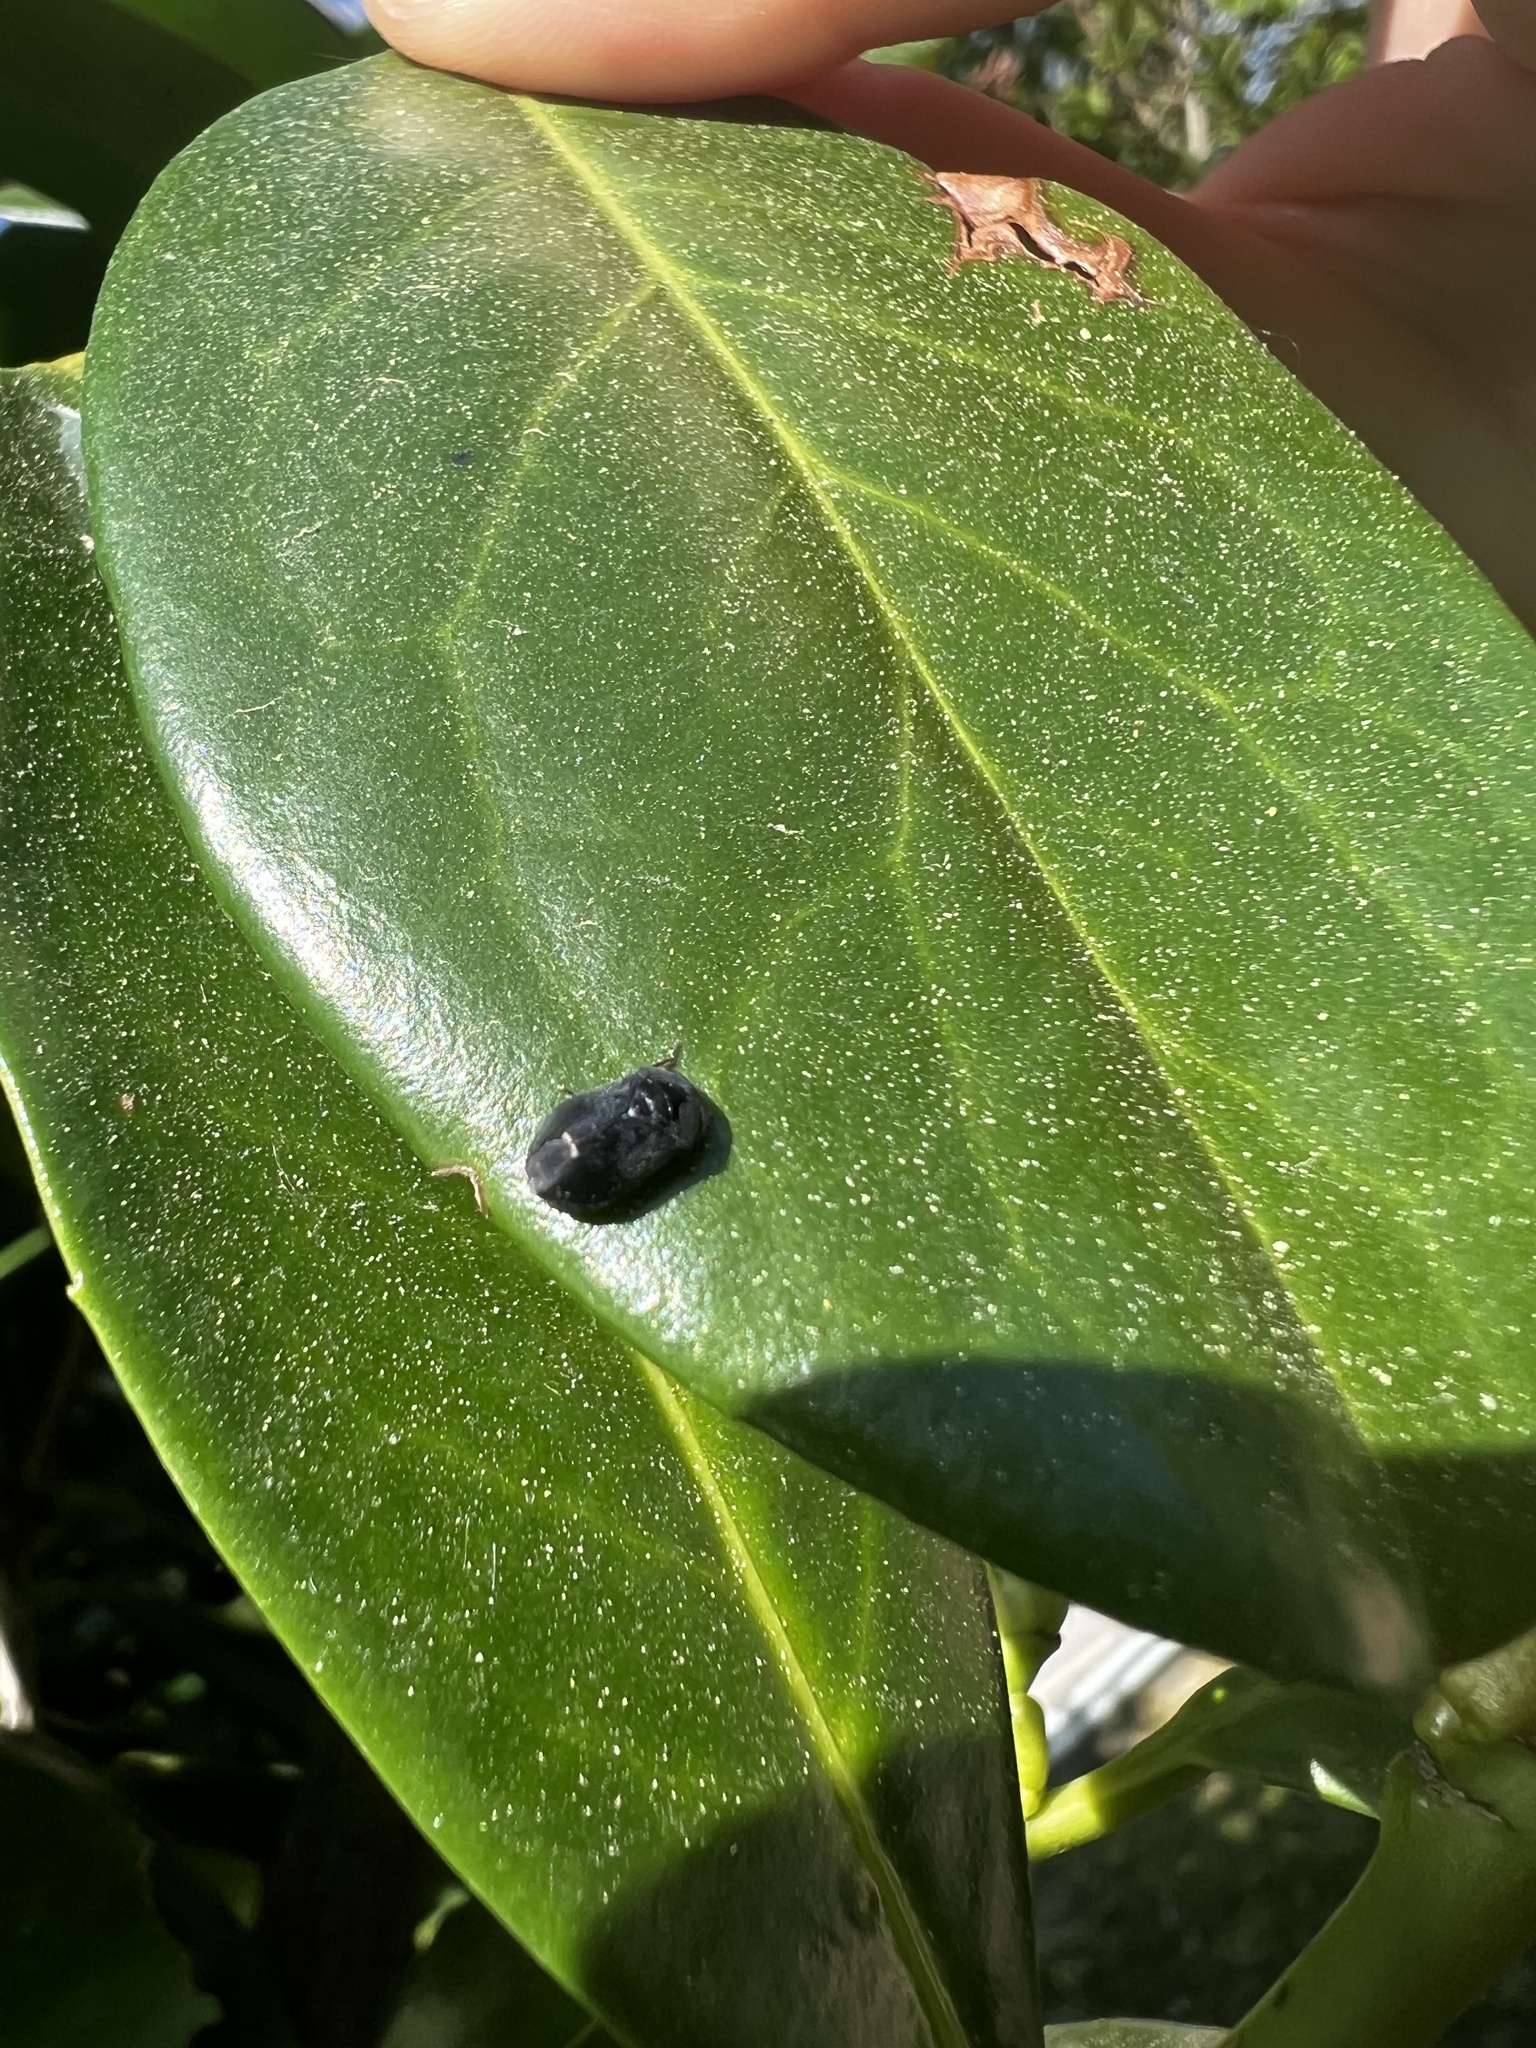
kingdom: Animalia
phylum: Arthropoda
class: Insecta
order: Hemiptera
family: Cicadellidae
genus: Penthimia
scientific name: Penthimia nigra
